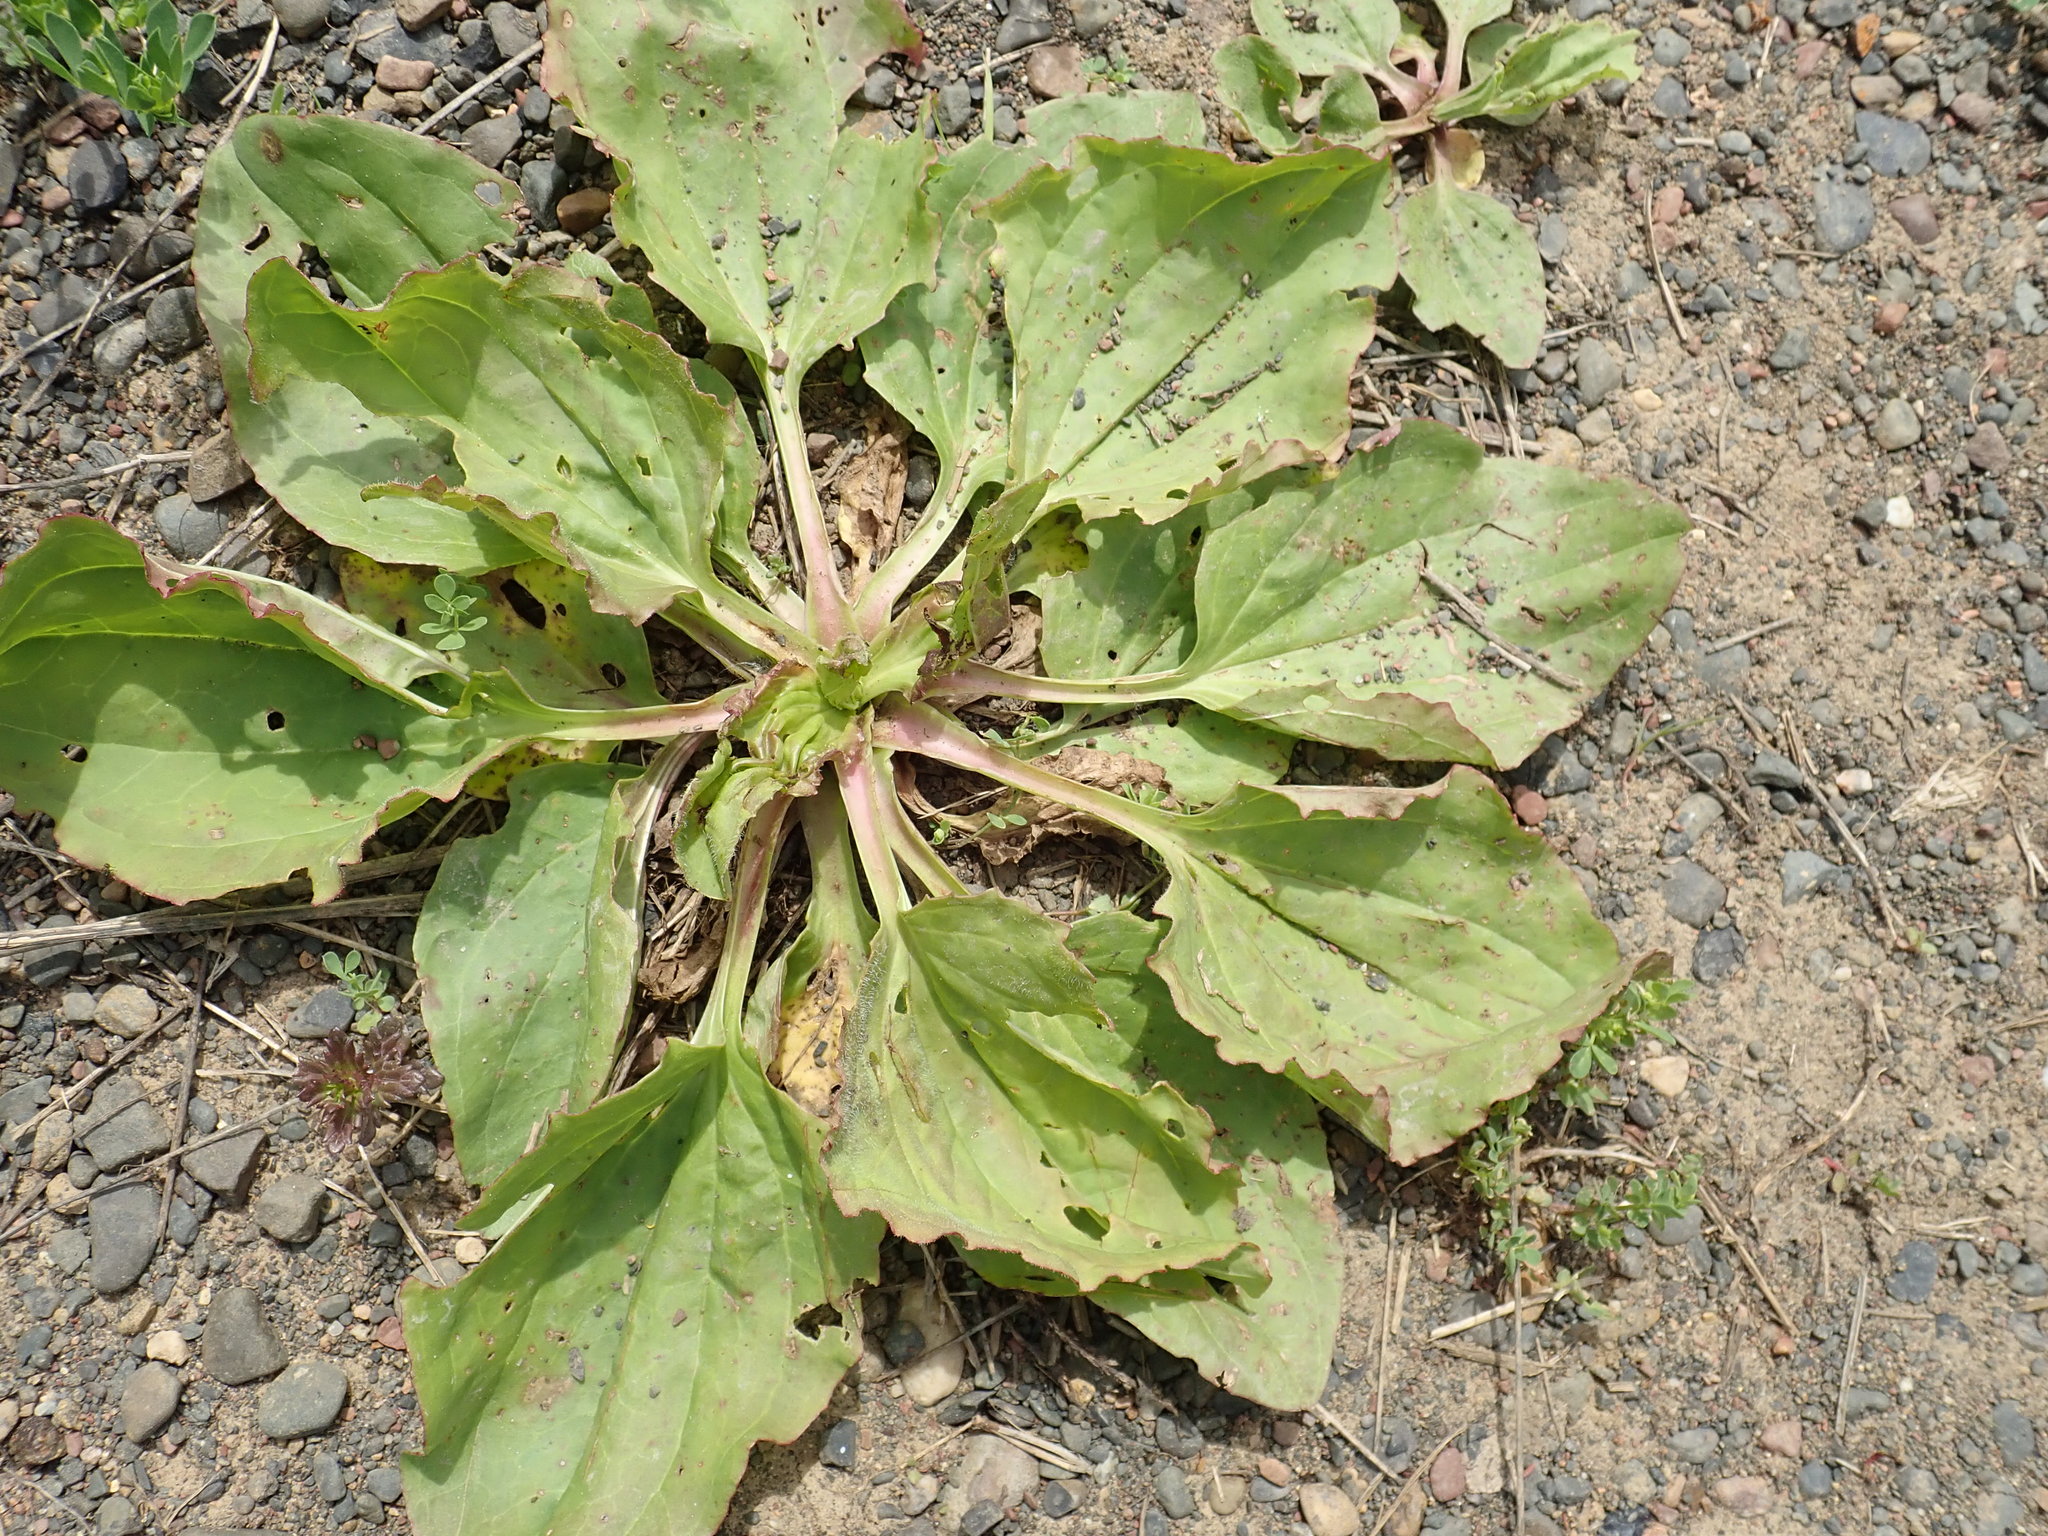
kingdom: Plantae
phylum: Tracheophyta
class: Magnoliopsida
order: Lamiales
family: Plantaginaceae
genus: Plantago
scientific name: Plantago major
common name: Common plantain
